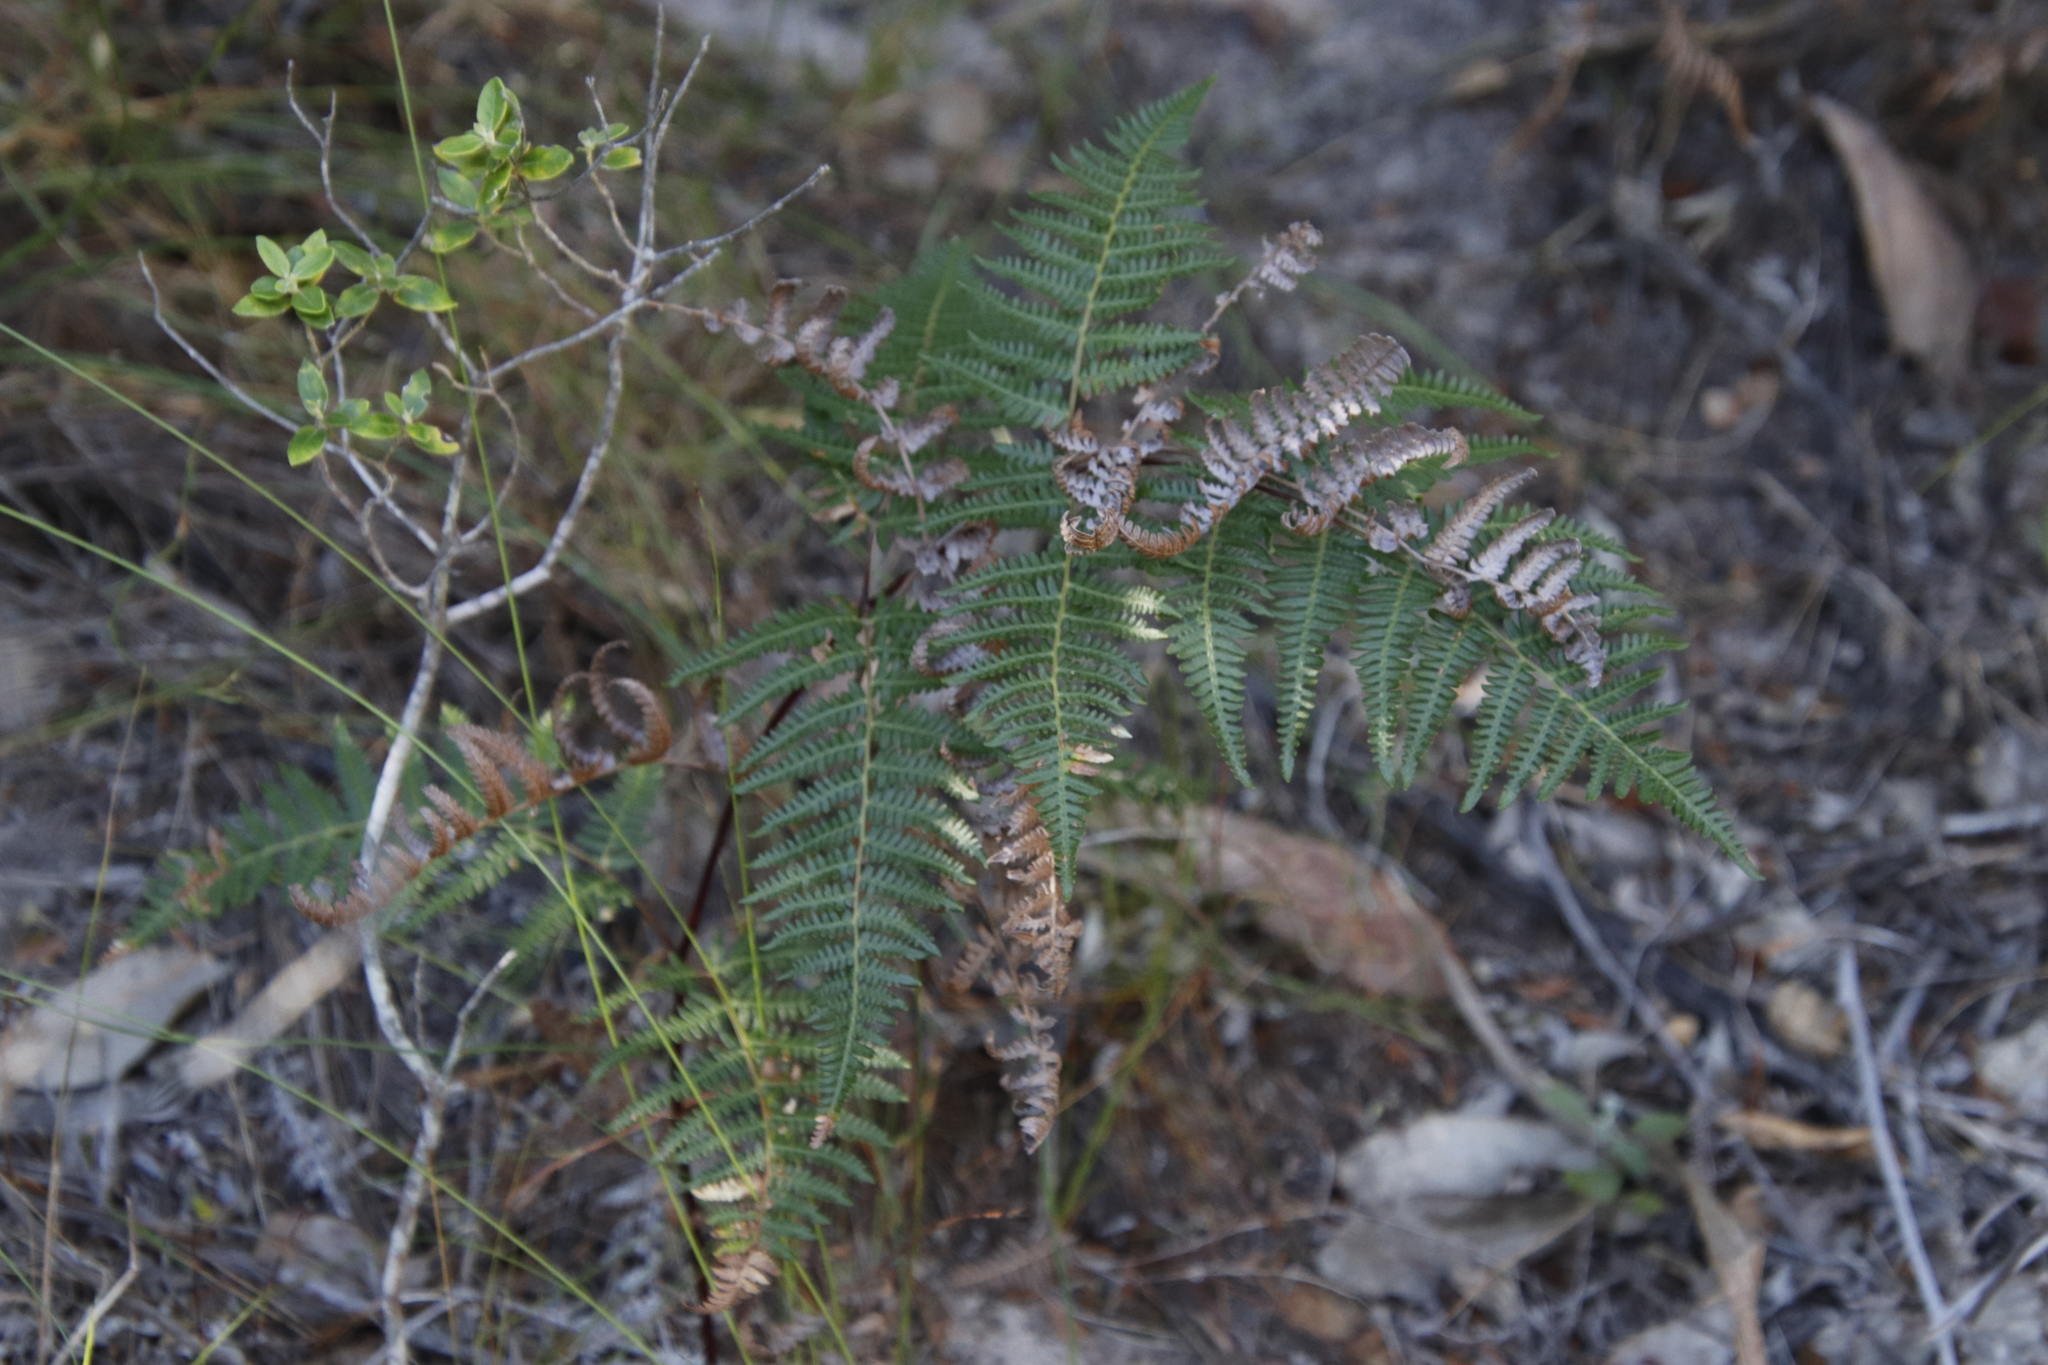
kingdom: Plantae
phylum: Tracheophyta
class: Polypodiopsida
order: Polypodiales
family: Dennstaedtiaceae
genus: Pteridium
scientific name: Pteridium aquilinum
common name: Bracken
